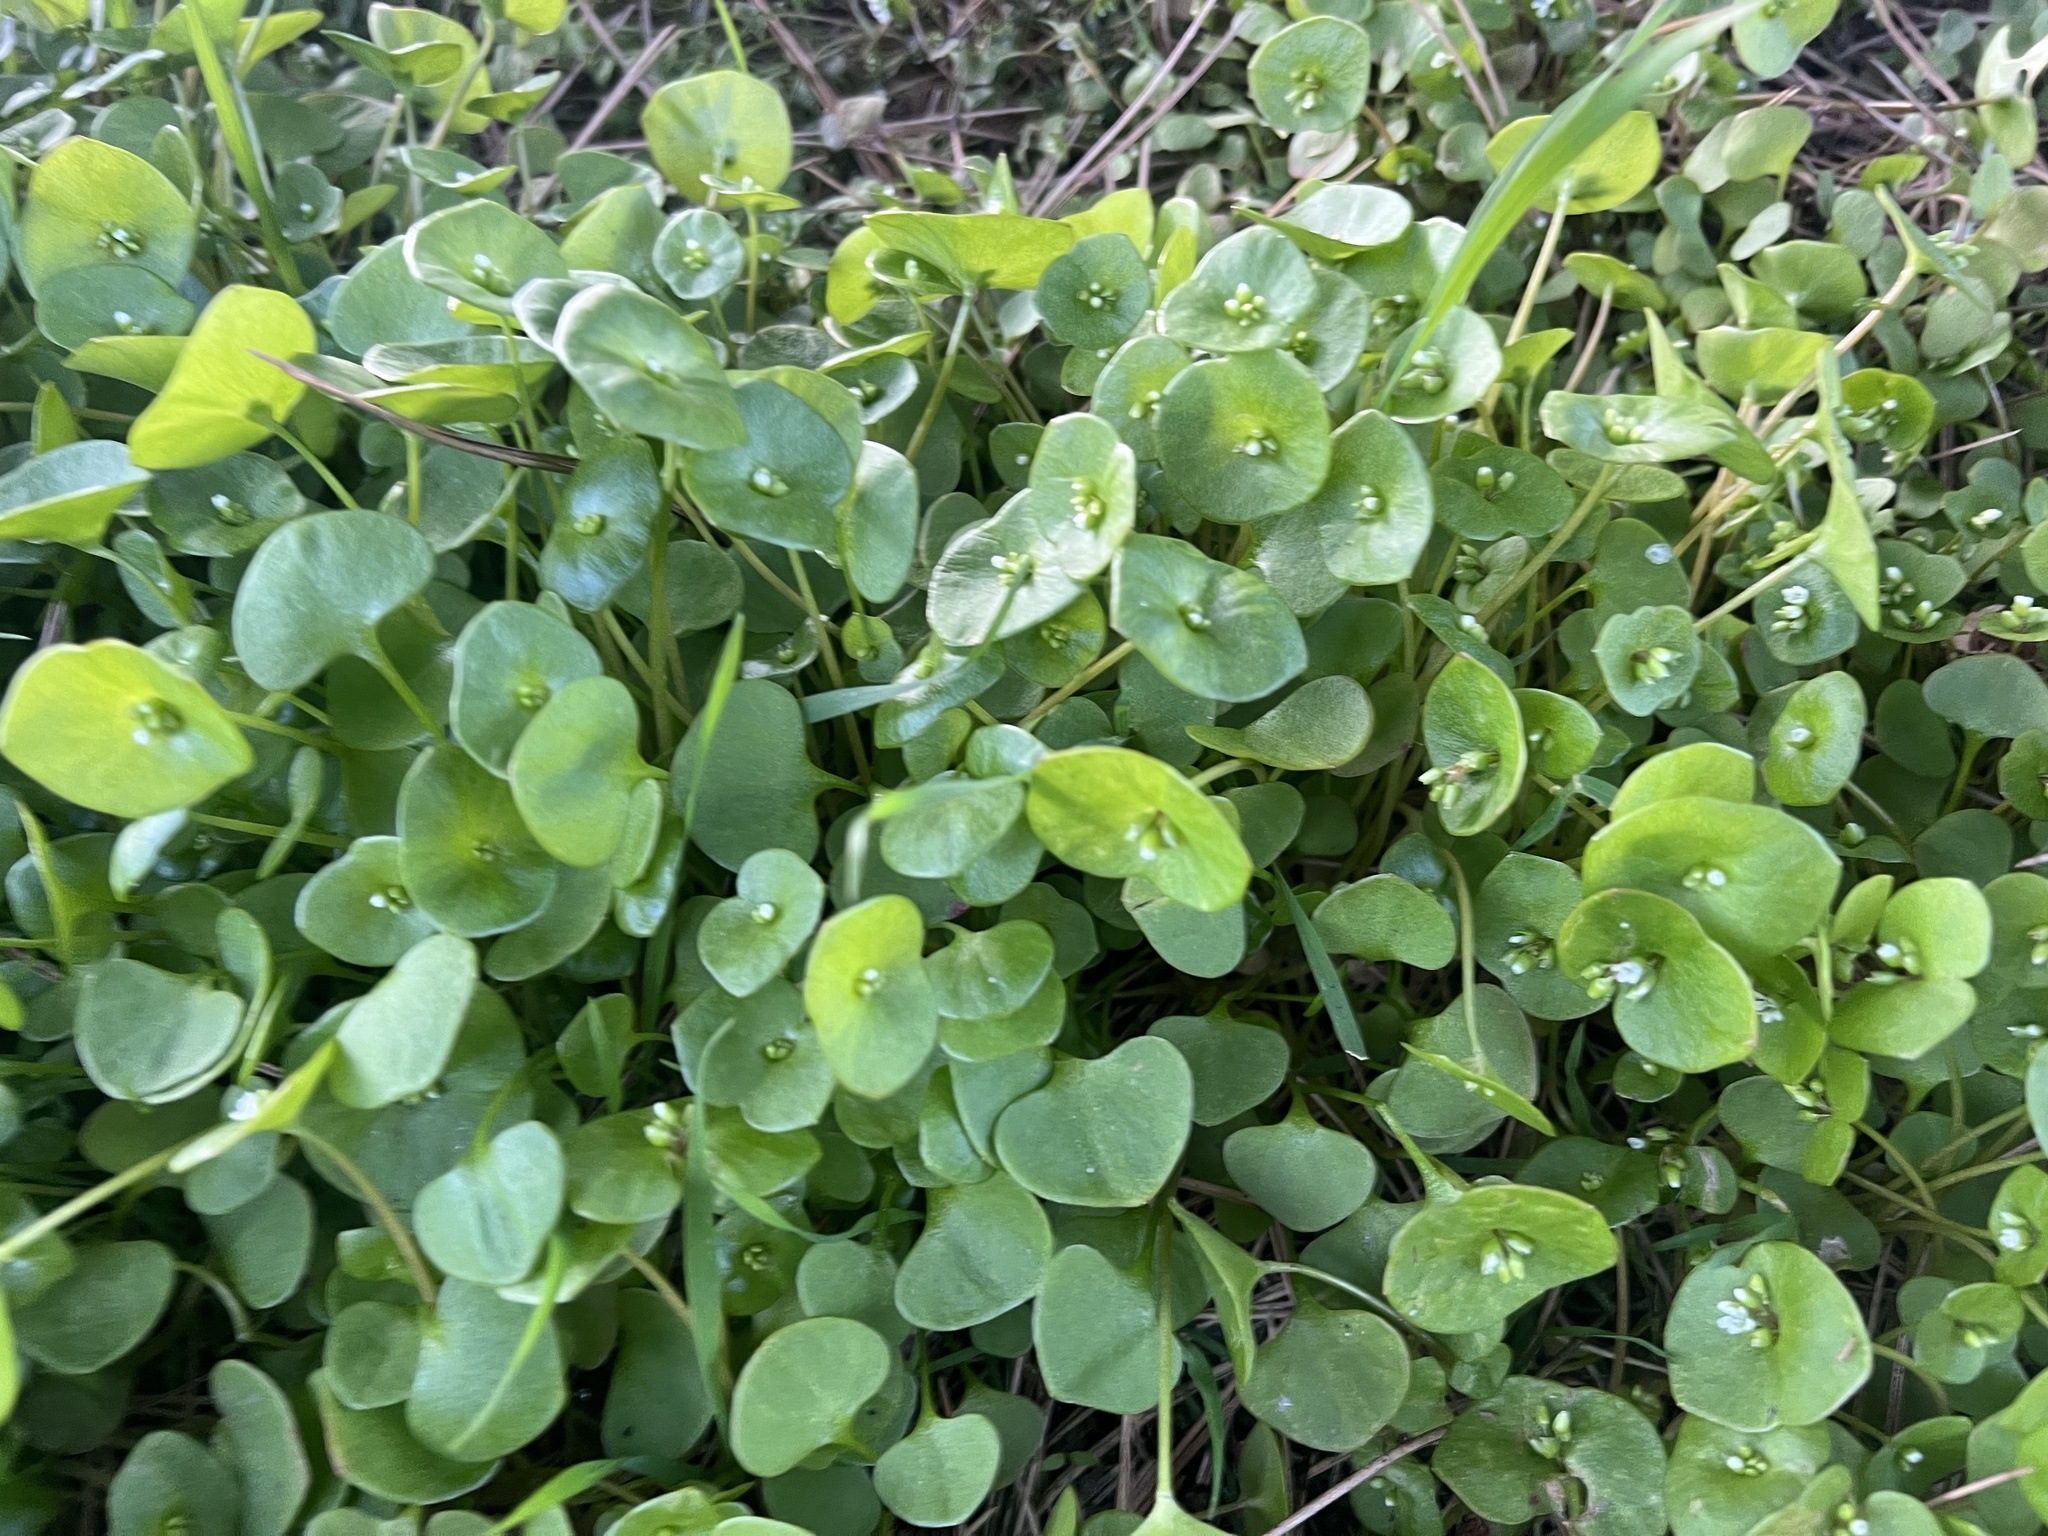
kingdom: Plantae
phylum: Tracheophyta
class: Magnoliopsida
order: Caryophyllales
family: Montiaceae
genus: Claytonia
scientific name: Claytonia perfoliata
